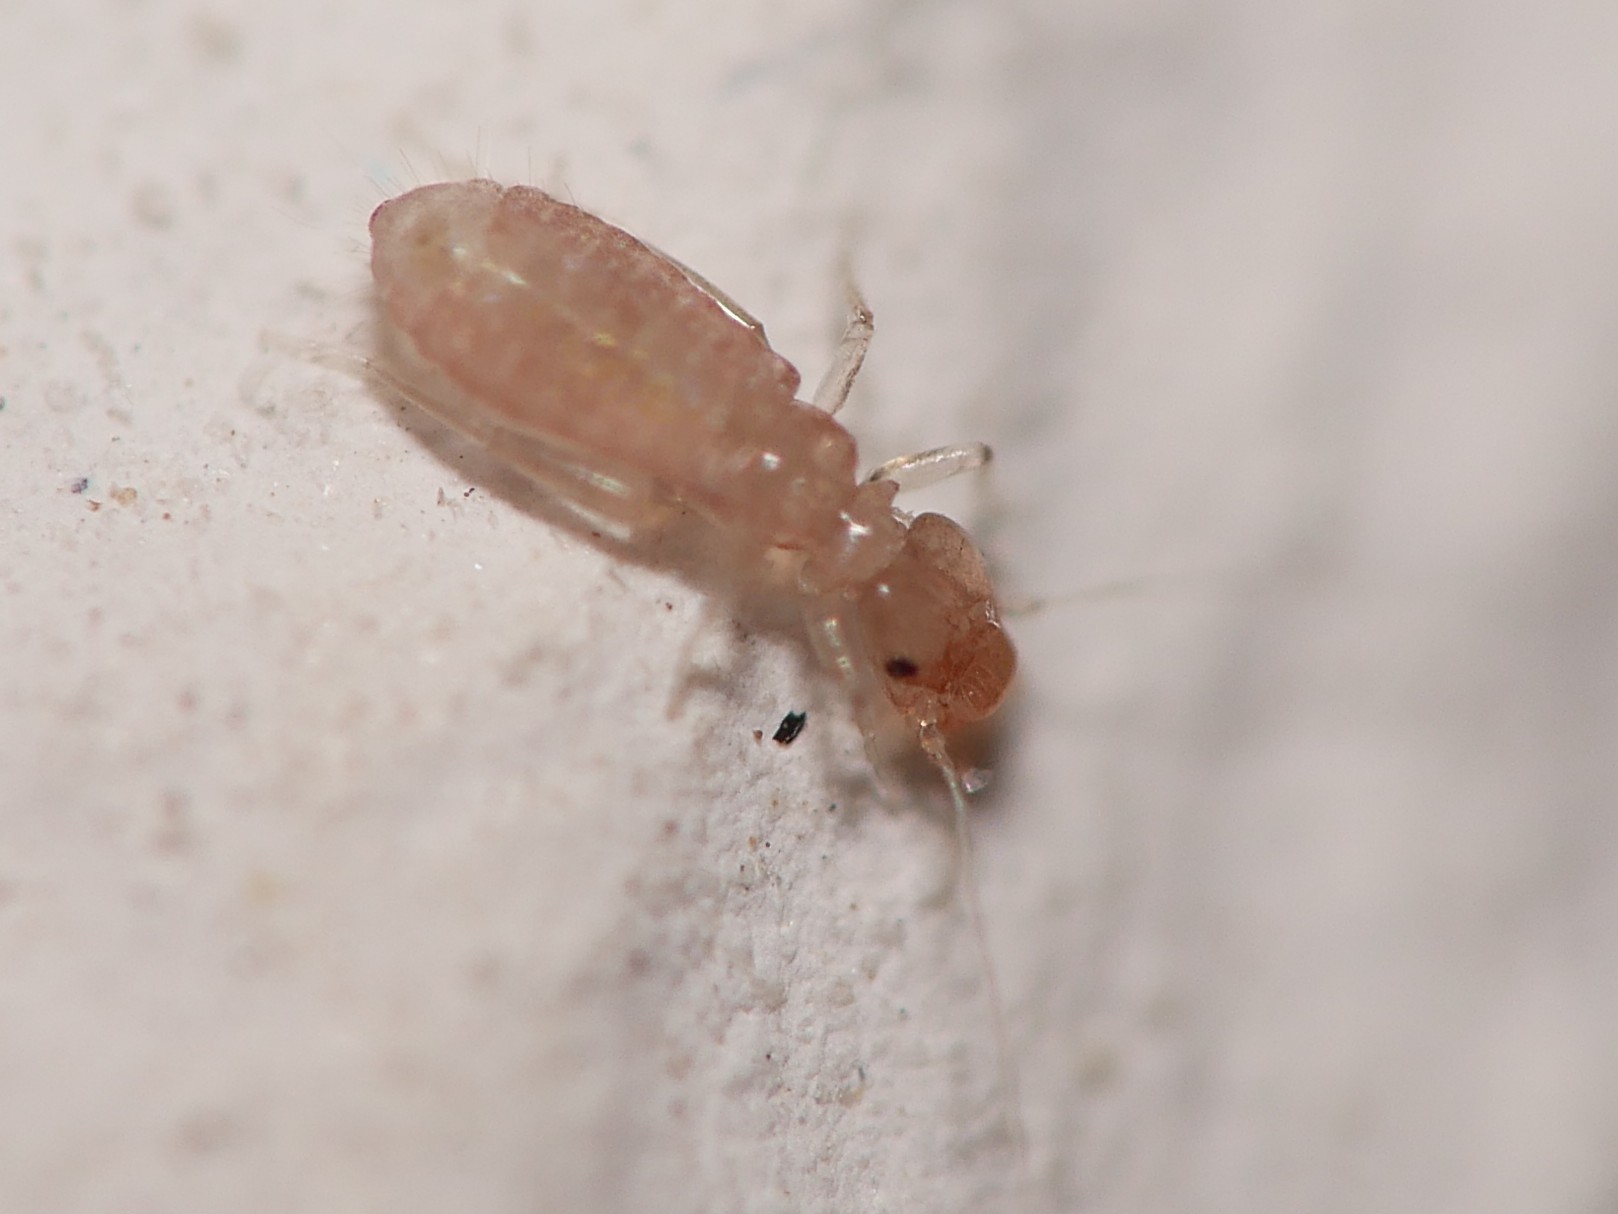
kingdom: Animalia
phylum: Arthropoda
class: Insecta
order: Psocodea
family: Liposcelididae
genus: Liposcelis
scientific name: Liposcelis bostrychophila
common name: Bark lice
